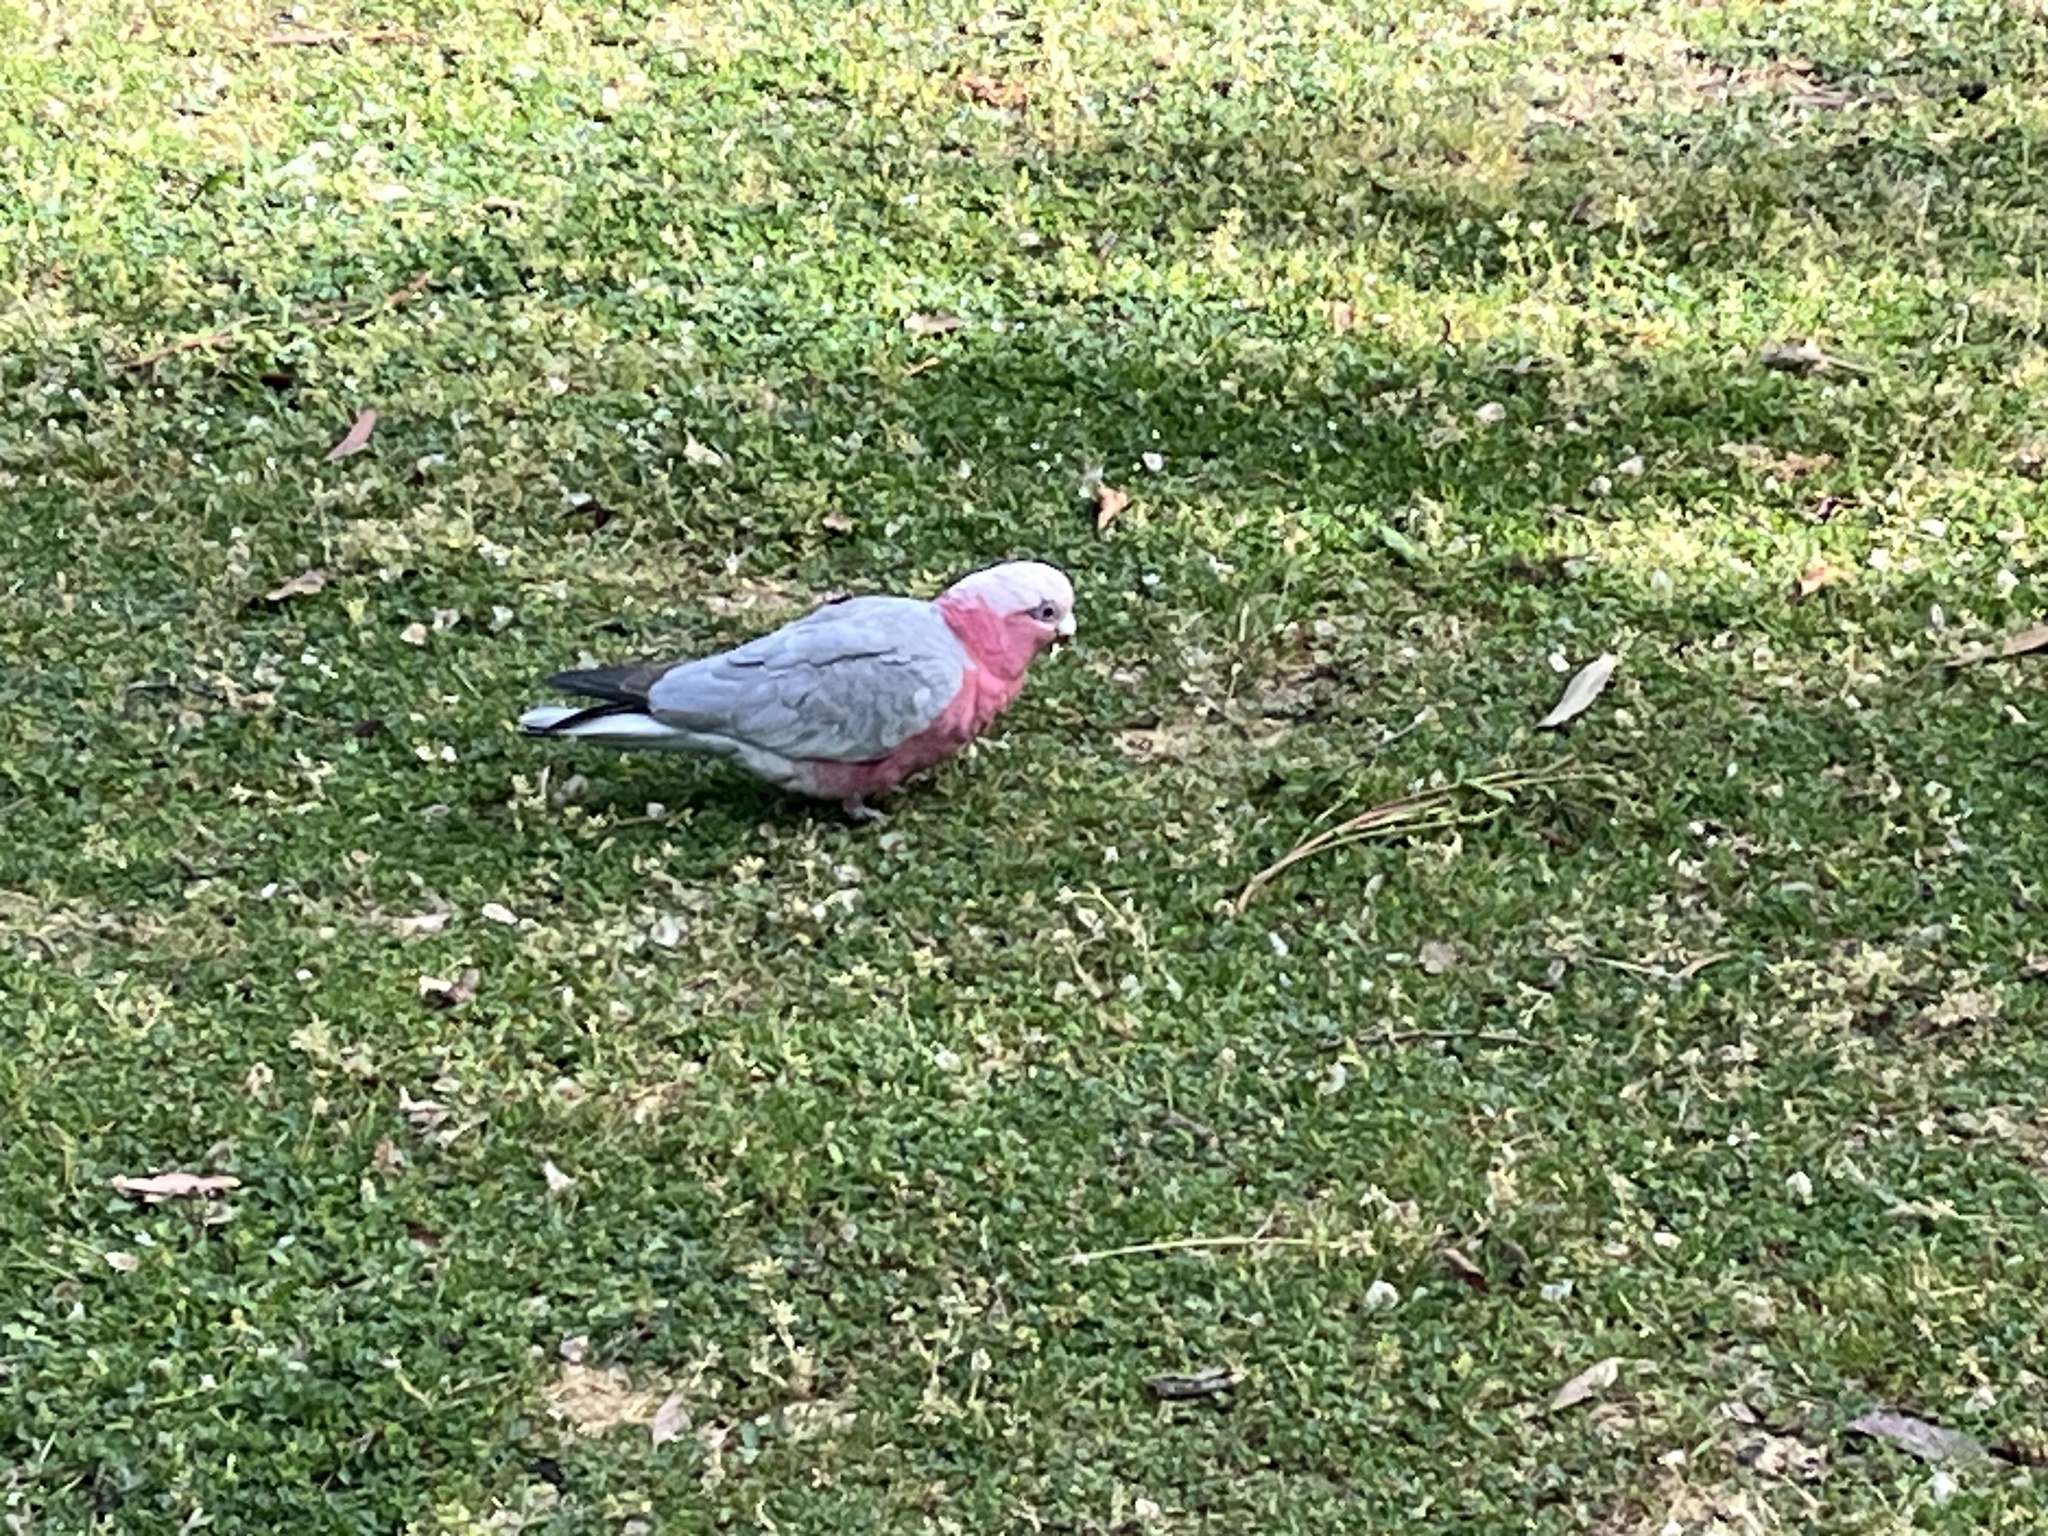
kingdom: Animalia
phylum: Chordata
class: Aves
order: Psittaciformes
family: Psittacidae
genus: Eolophus
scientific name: Eolophus roseicapilla
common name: Galah
